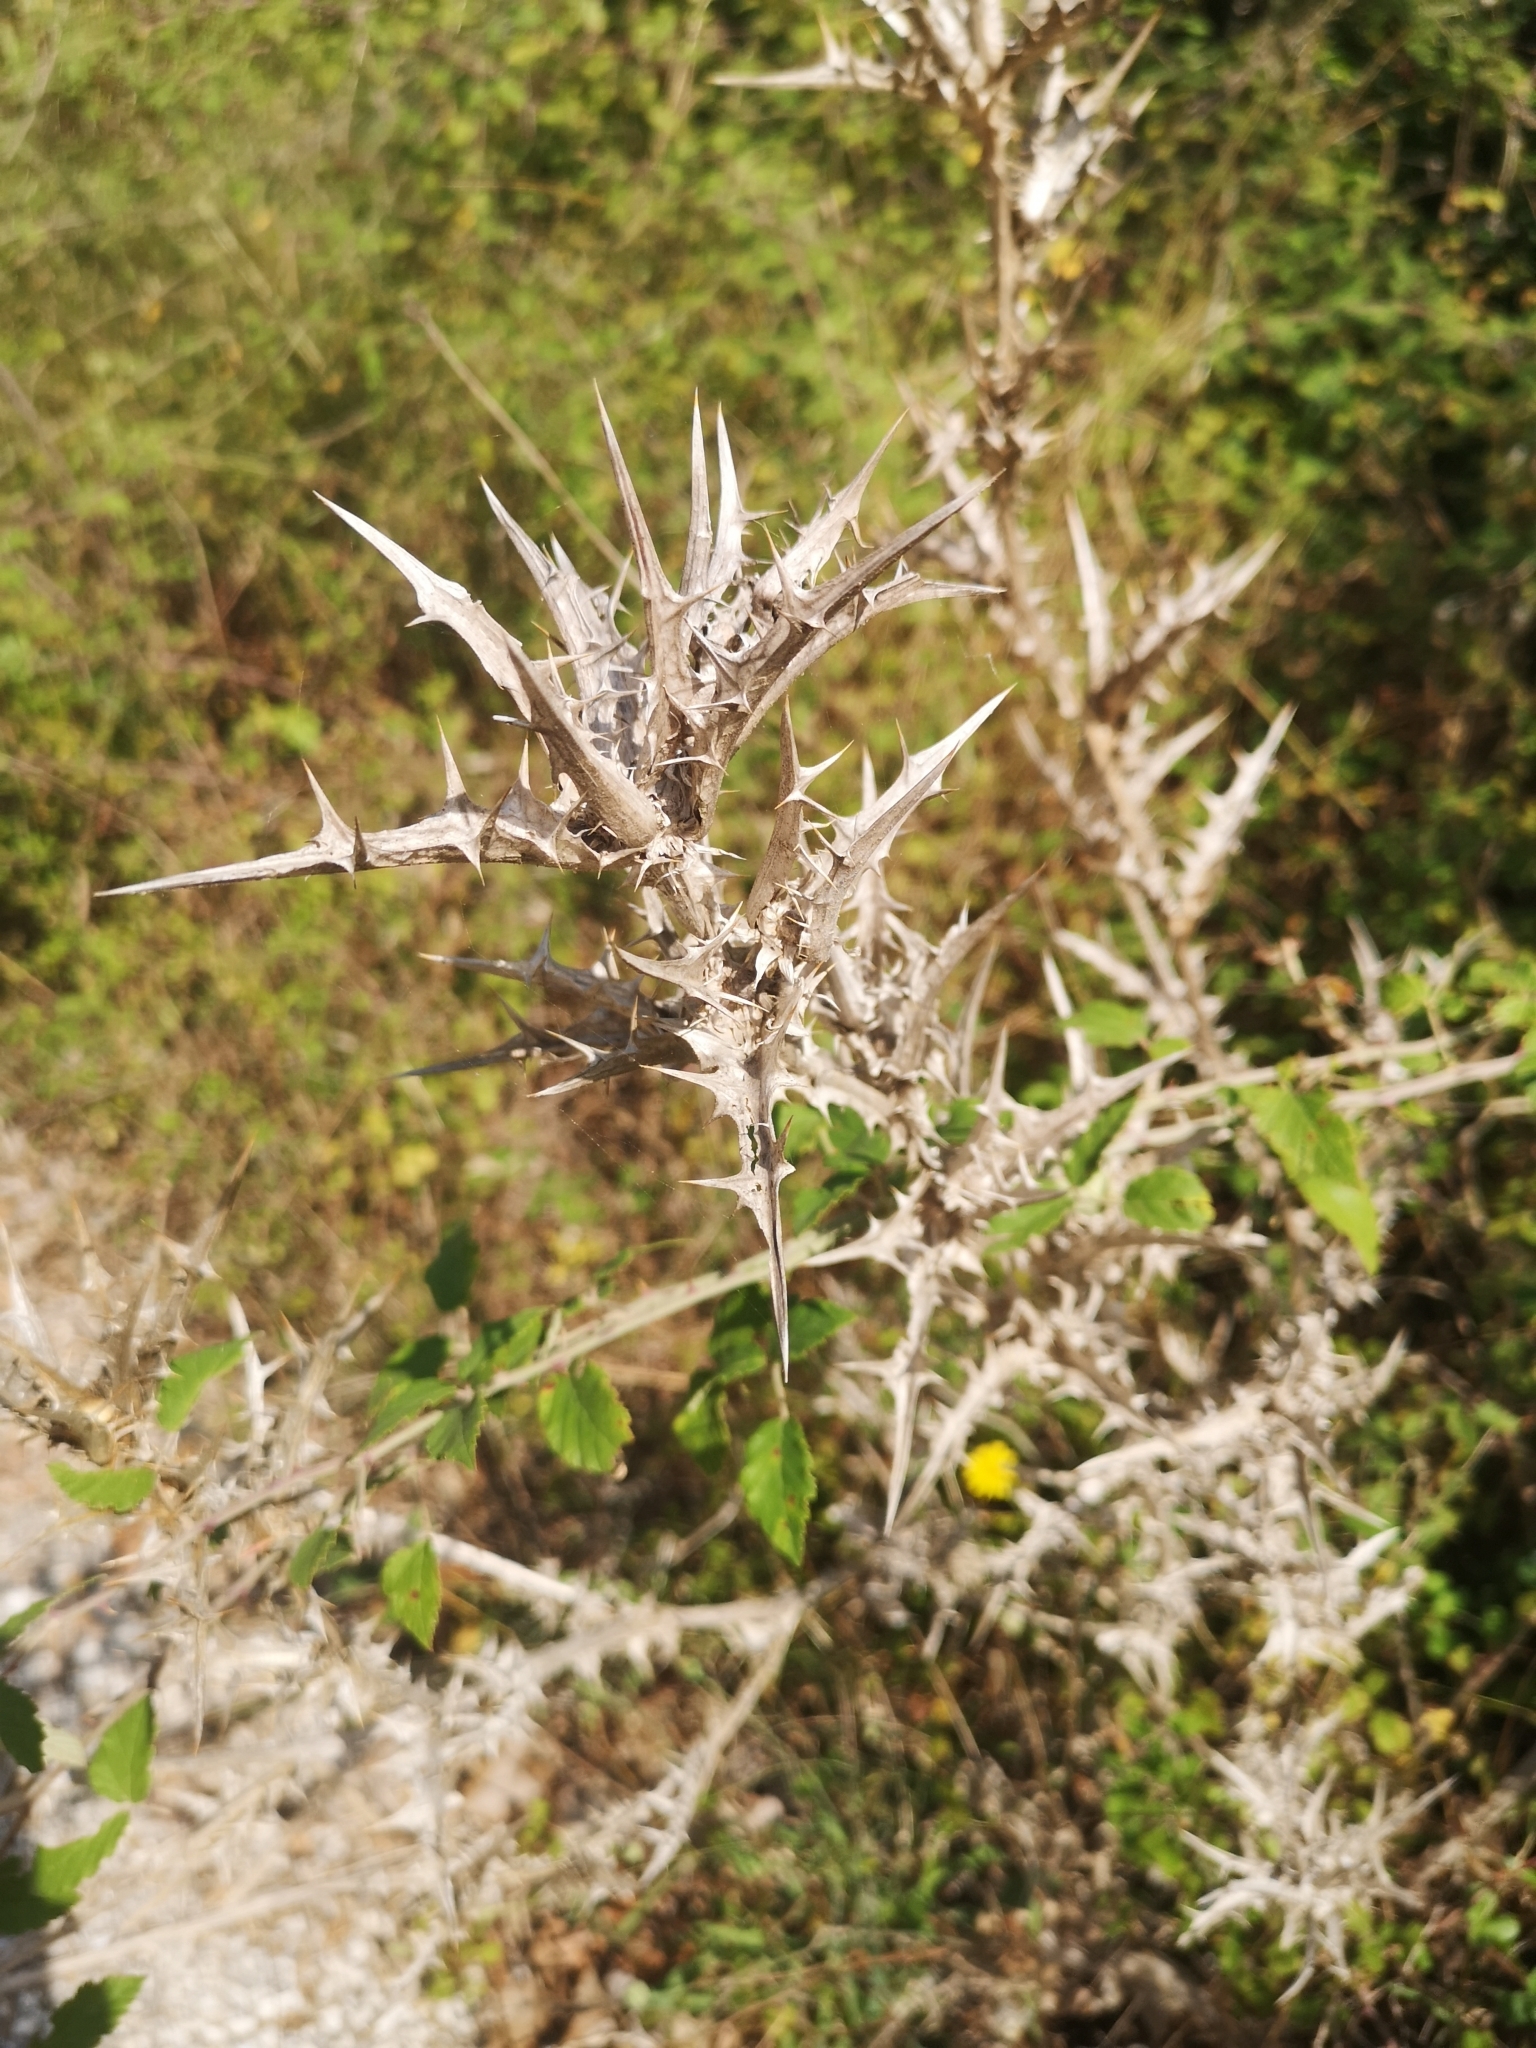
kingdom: Plantae
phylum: Tracheophyta
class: Magnoliopsida
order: Asterales
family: Asteraceae
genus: Scolymus
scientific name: Scolymus hispanicus
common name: Golden thistle
